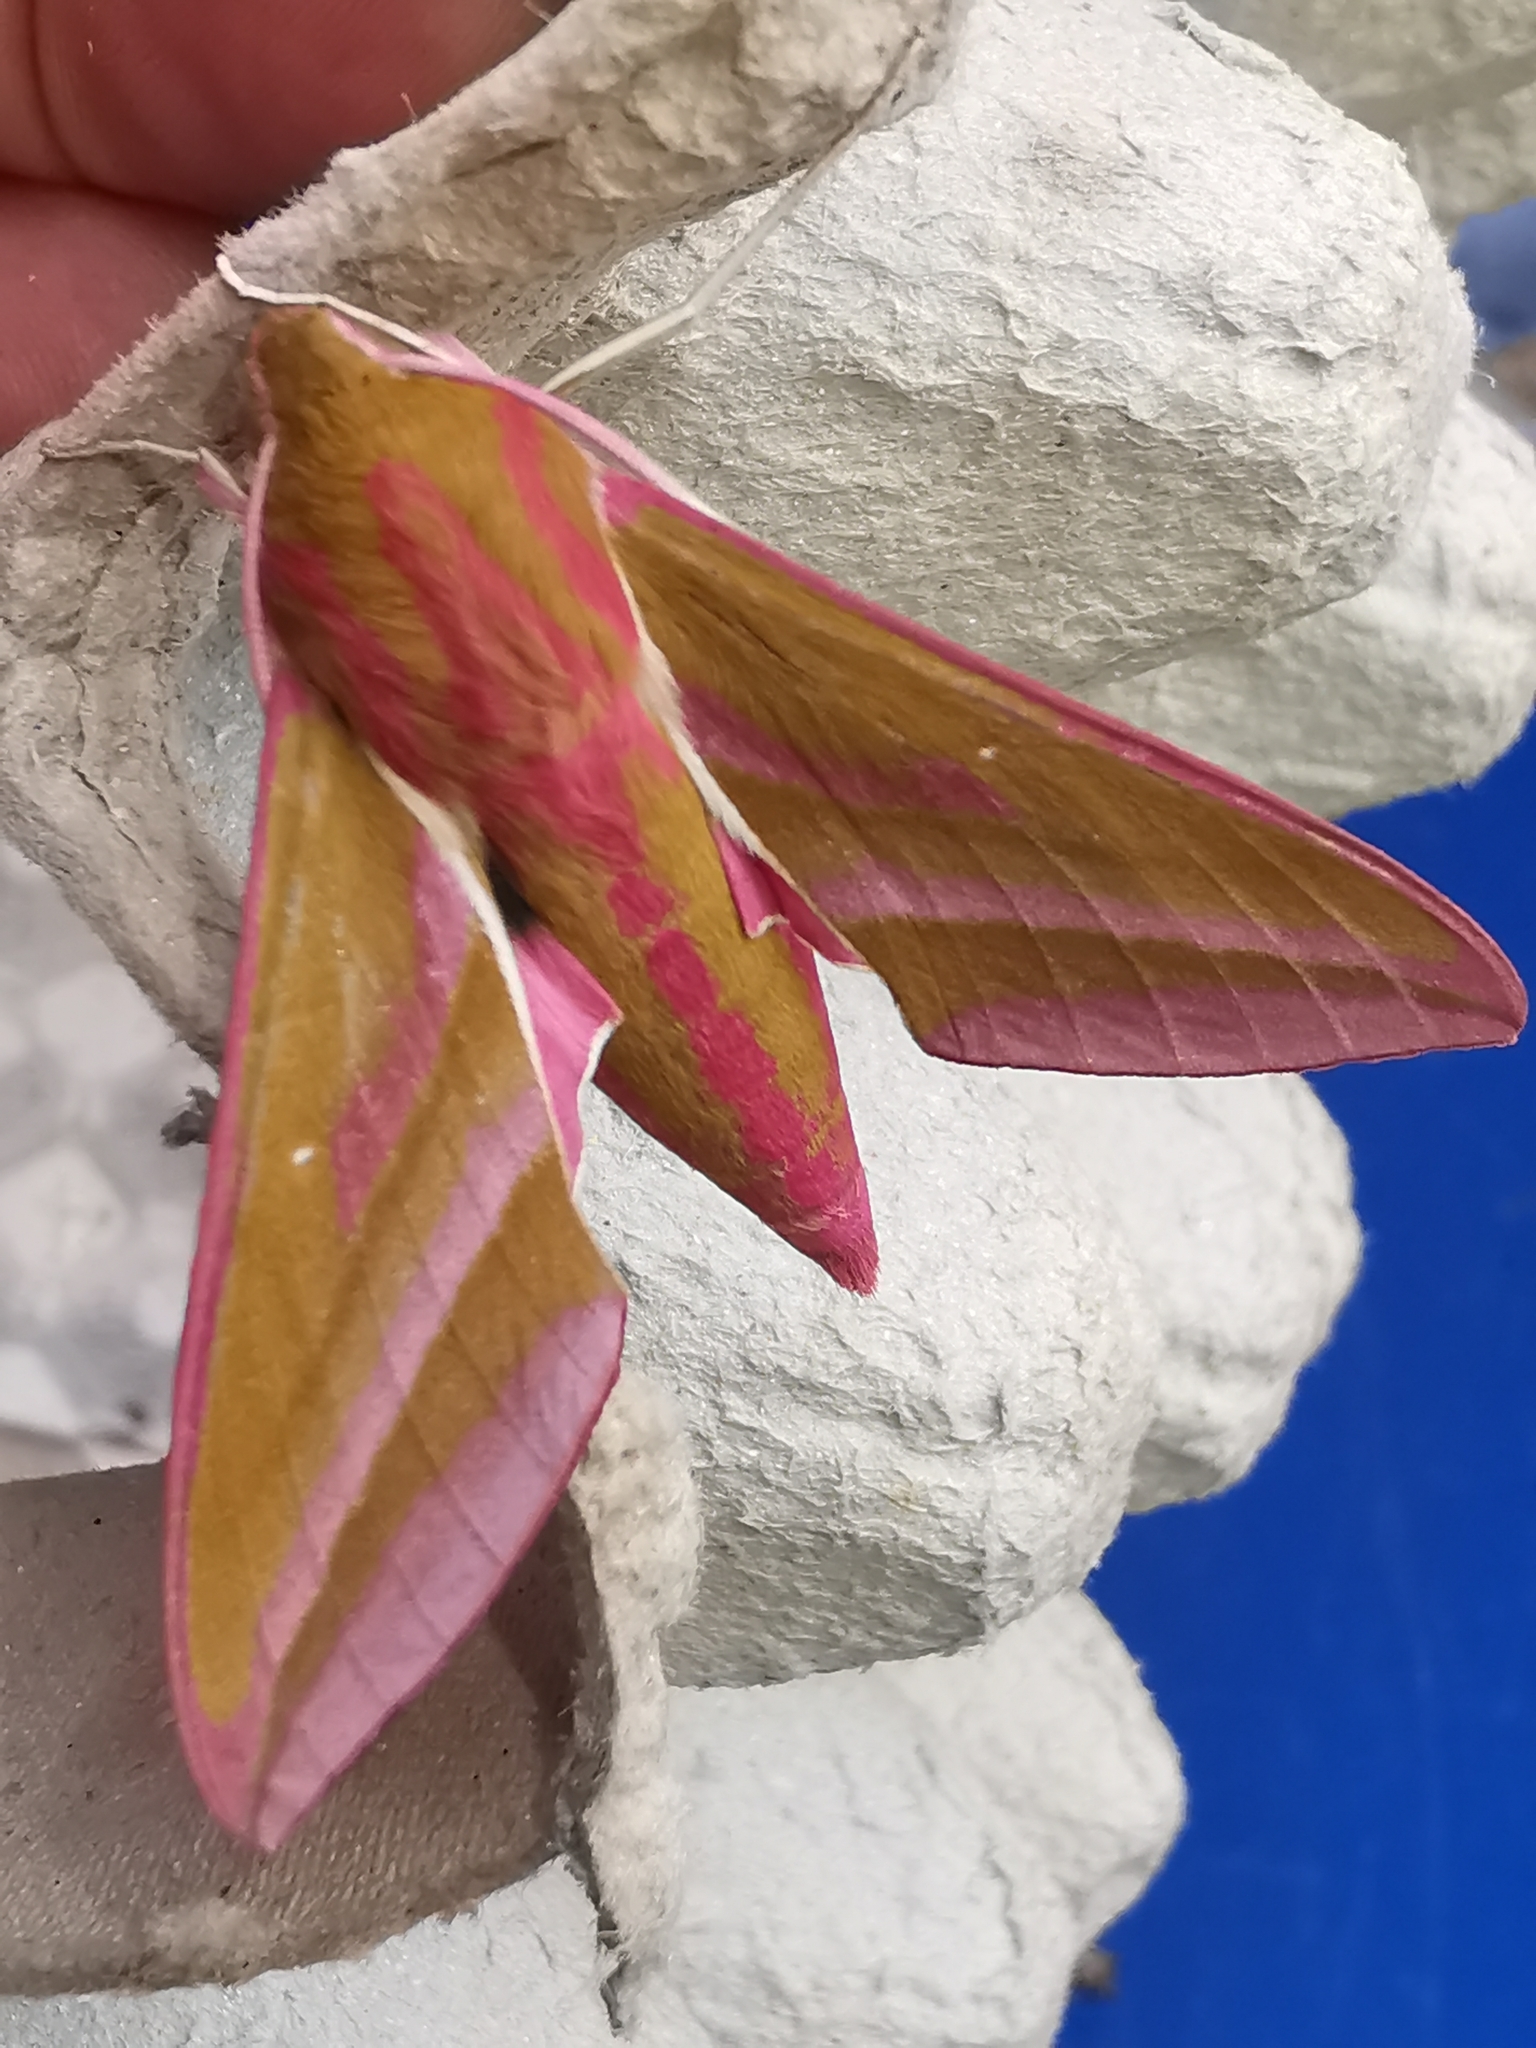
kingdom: Animalia
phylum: Arthropoda
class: Insecta
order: Lepidoptera
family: Sphingidae
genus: Deilephila
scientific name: Deilephila elpenor
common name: Elephant hawk-moth
